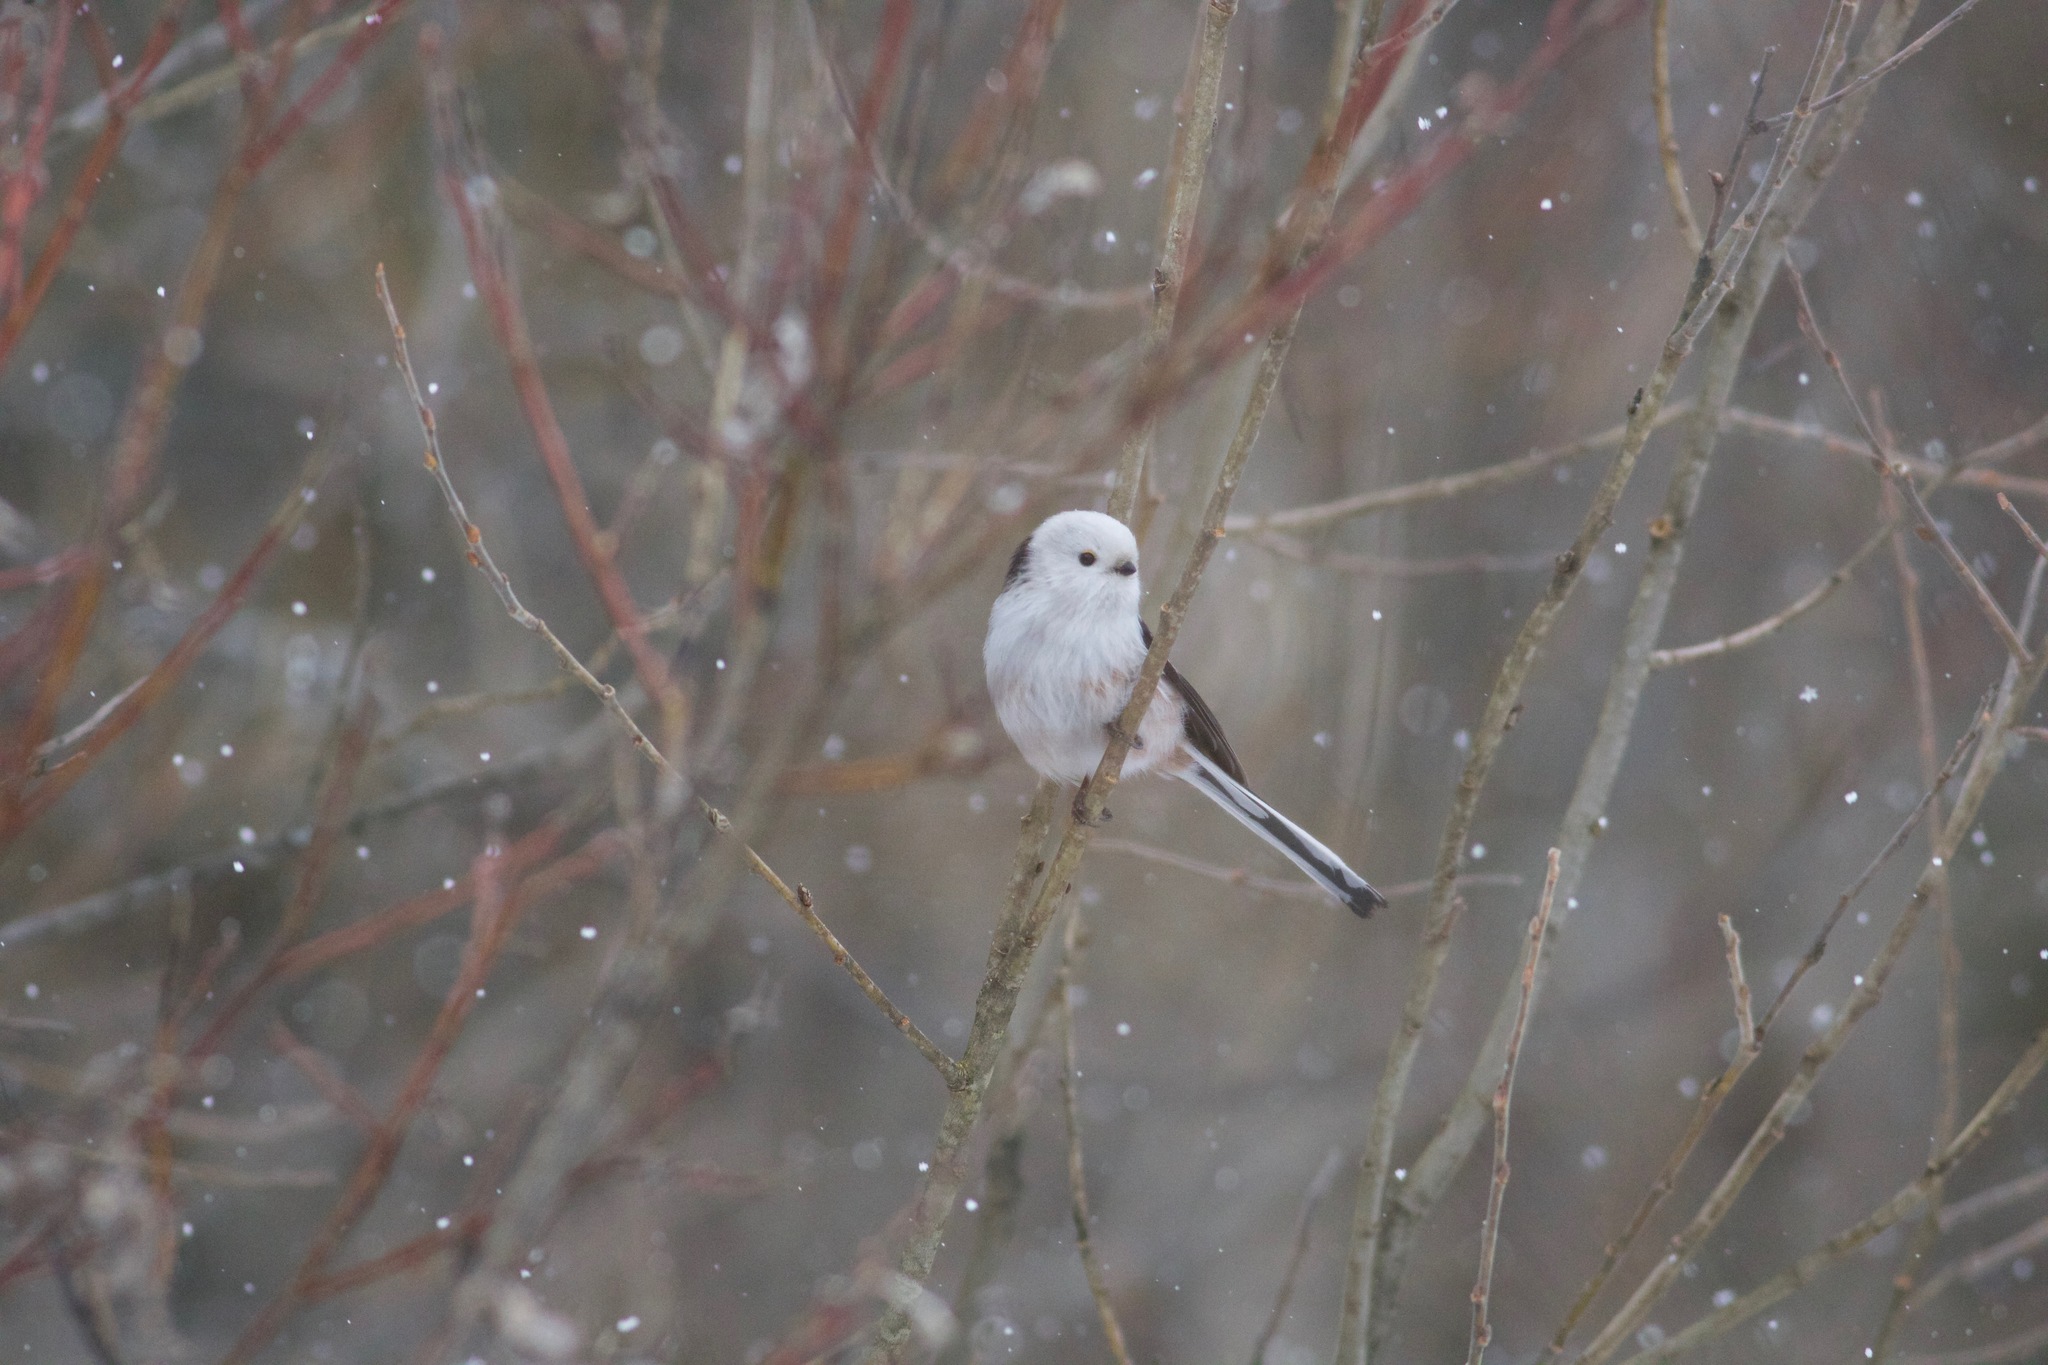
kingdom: Animalia
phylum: Chordata
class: Aves
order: Passeriformes
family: Aegithalidae
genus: Aegithalos
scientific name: Aegithalos caudatus
